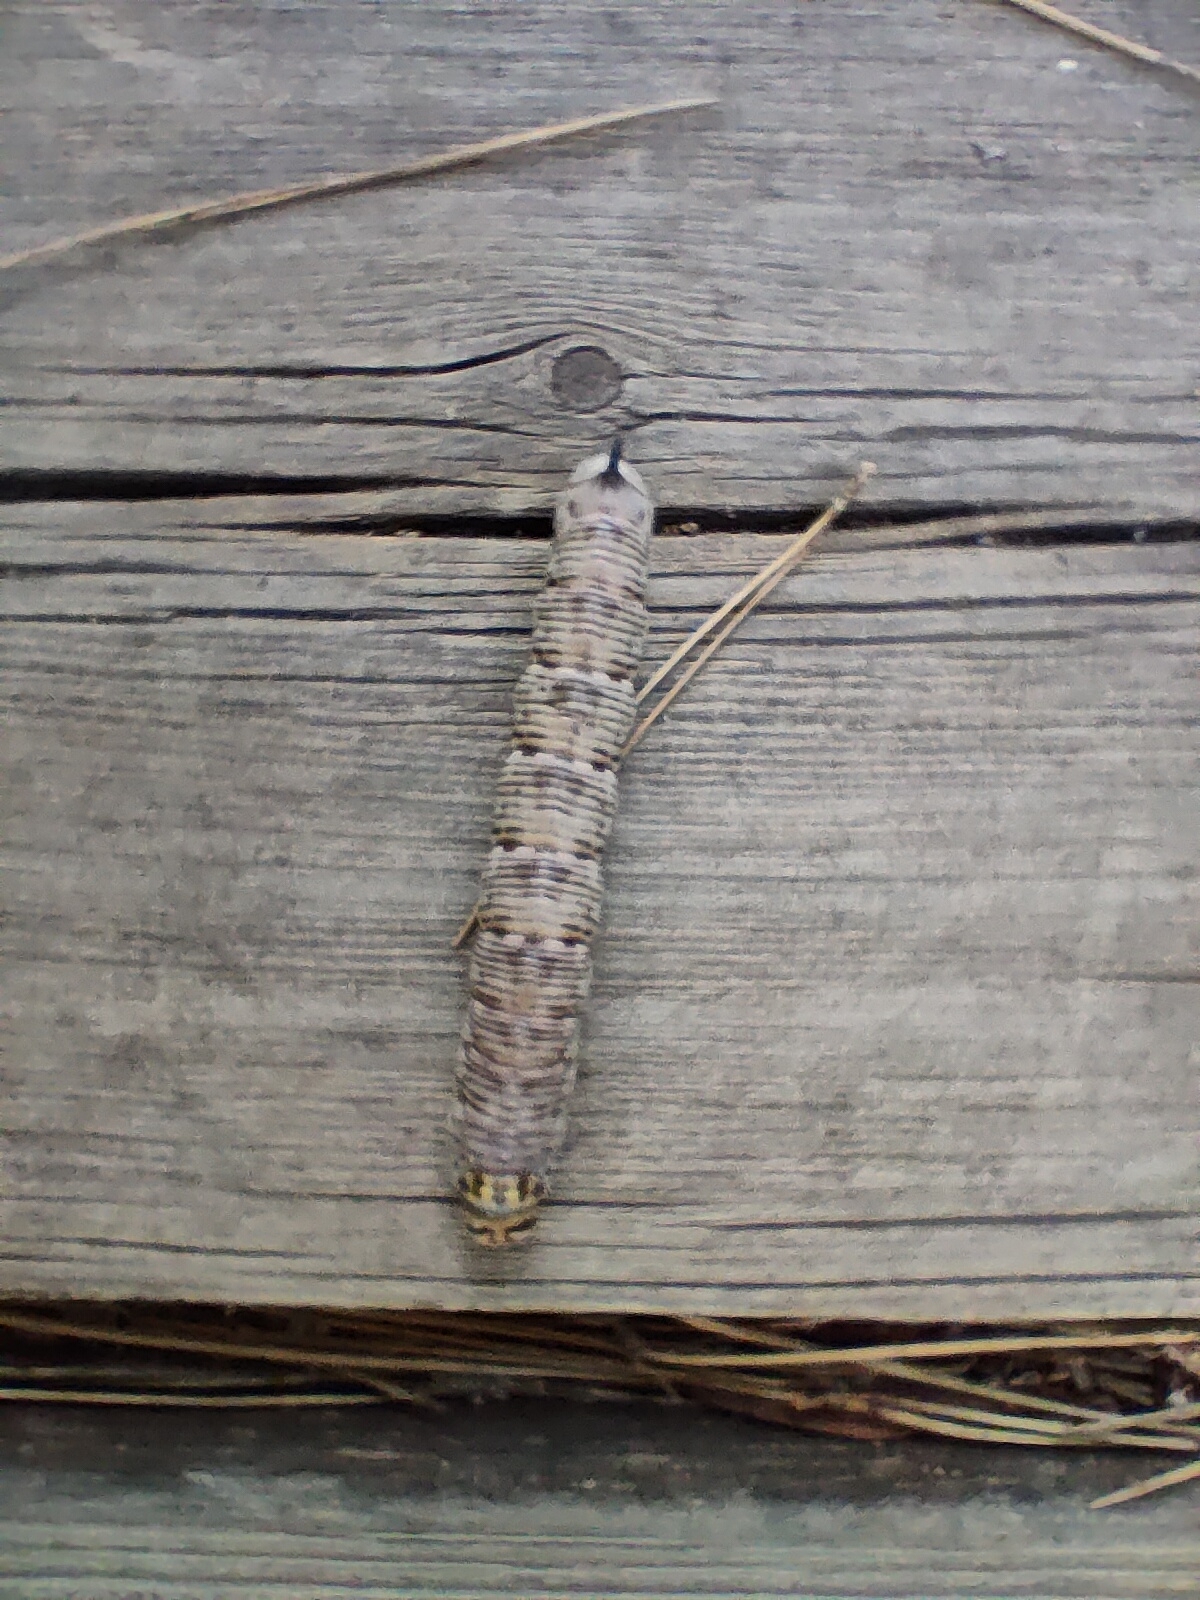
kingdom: Animalia
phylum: Arthropoda
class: Insecta
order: Lepidoptera
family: Sphingidae
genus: Sphinx
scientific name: Sphinx maurorum
